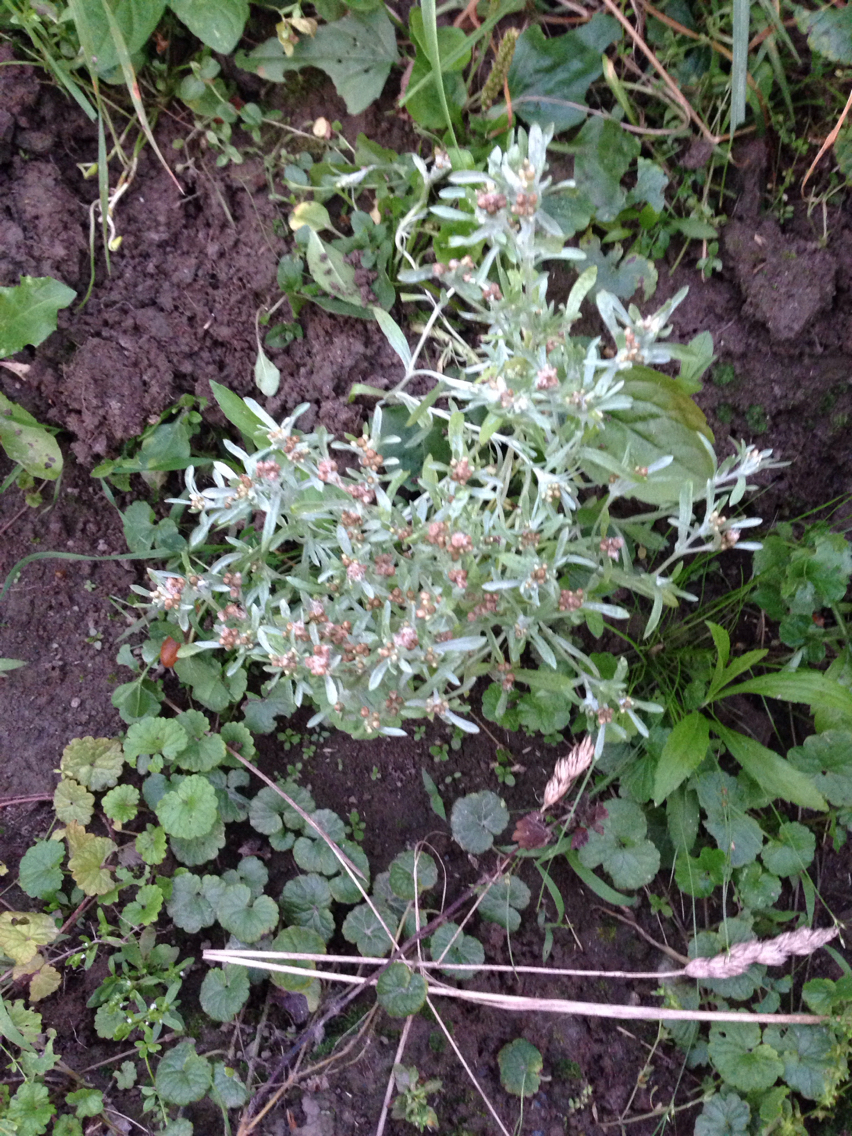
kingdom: Plantae
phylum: Tracheophyta
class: Magnoliopsida
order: Asterales
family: Asteraceae
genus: Gnaphalium
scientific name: Gnaphalium uliginosum
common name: Marsh cudweed
